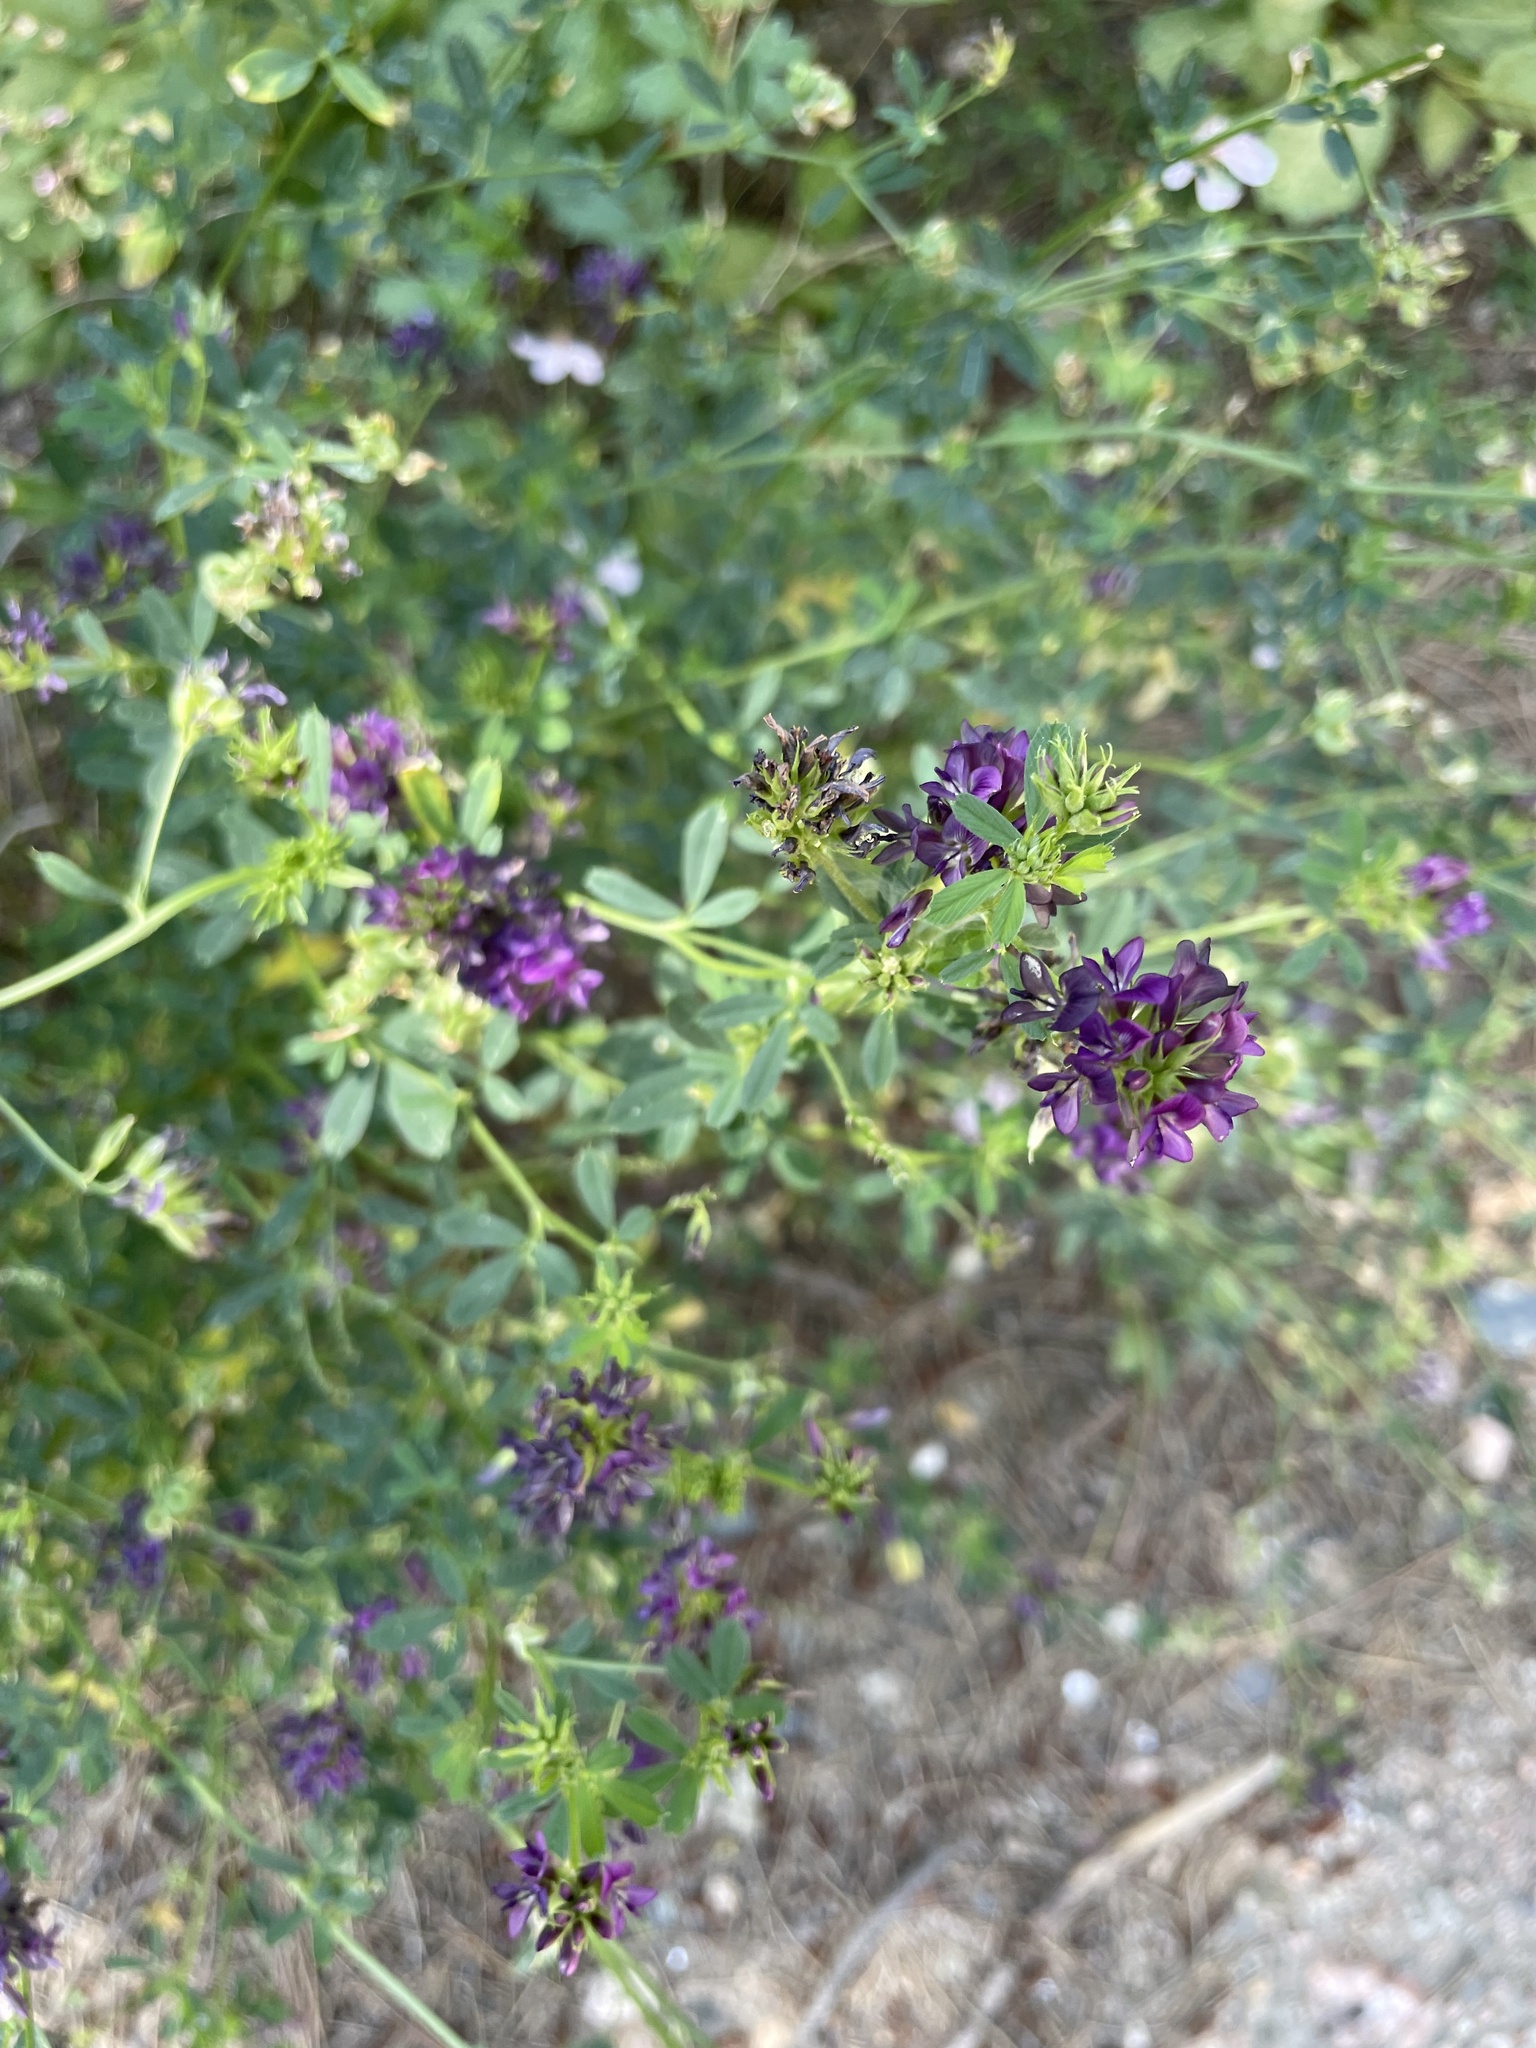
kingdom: Plantae
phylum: Tracheophyta
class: Magnoliopsida
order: Fabales
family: Fabaceae
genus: Medicago
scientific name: Medicago sativa
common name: Alfalfa
